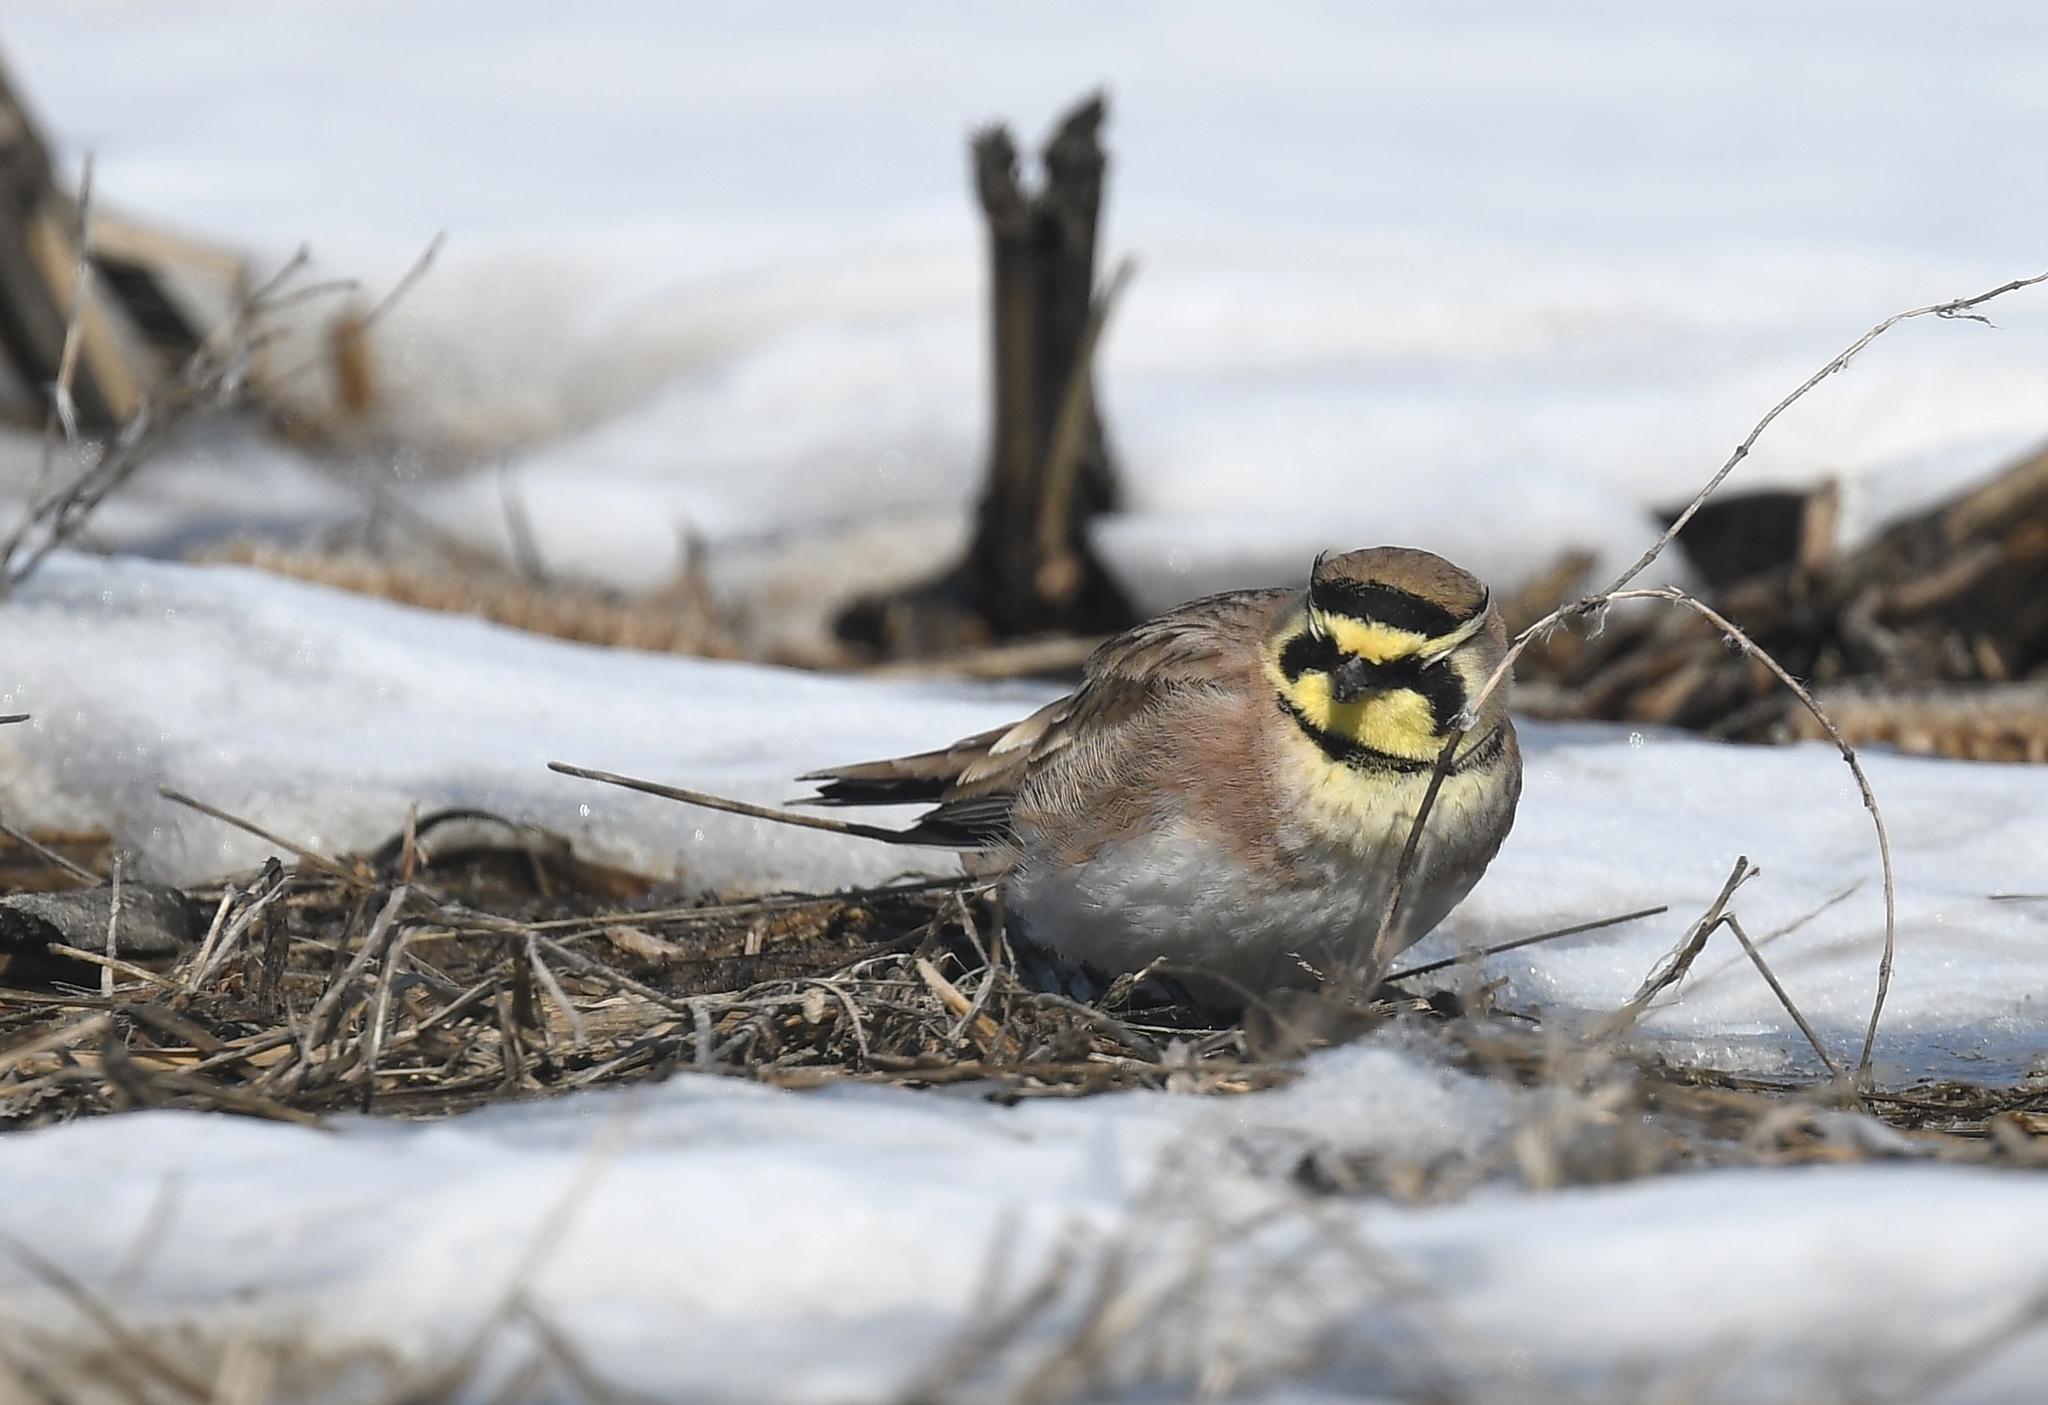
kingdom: Animalia
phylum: Chordata
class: Aves
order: Passeriformes
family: Alaudidae
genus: Eremophila
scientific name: Eremophila alpestris
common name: Horned lark
